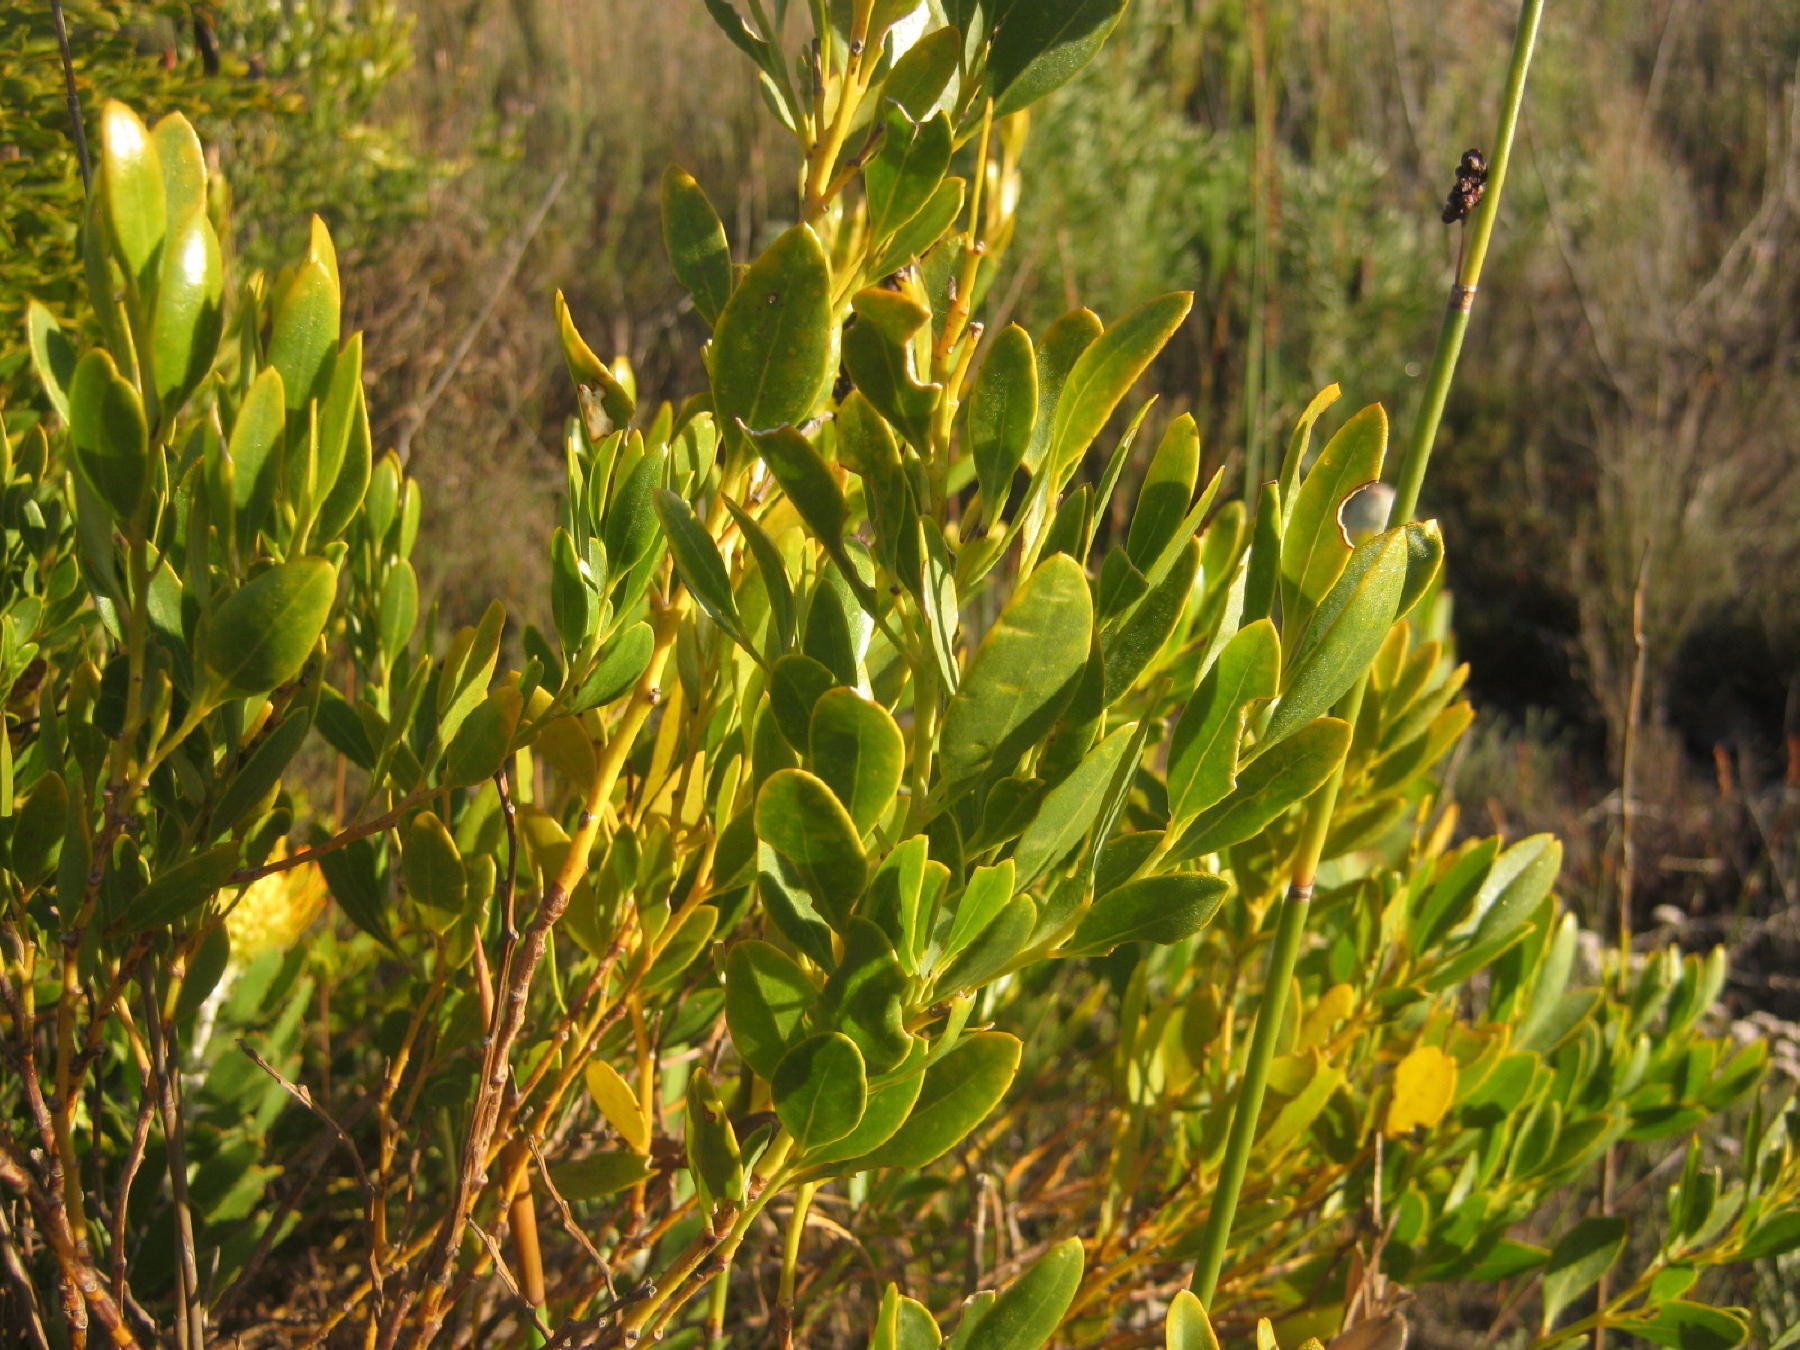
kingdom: Plantae
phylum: Tracheophyta
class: Magnoliopsida
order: Fabales
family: Fabaceae
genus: Rafnia
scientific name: Rafnia vlokii
